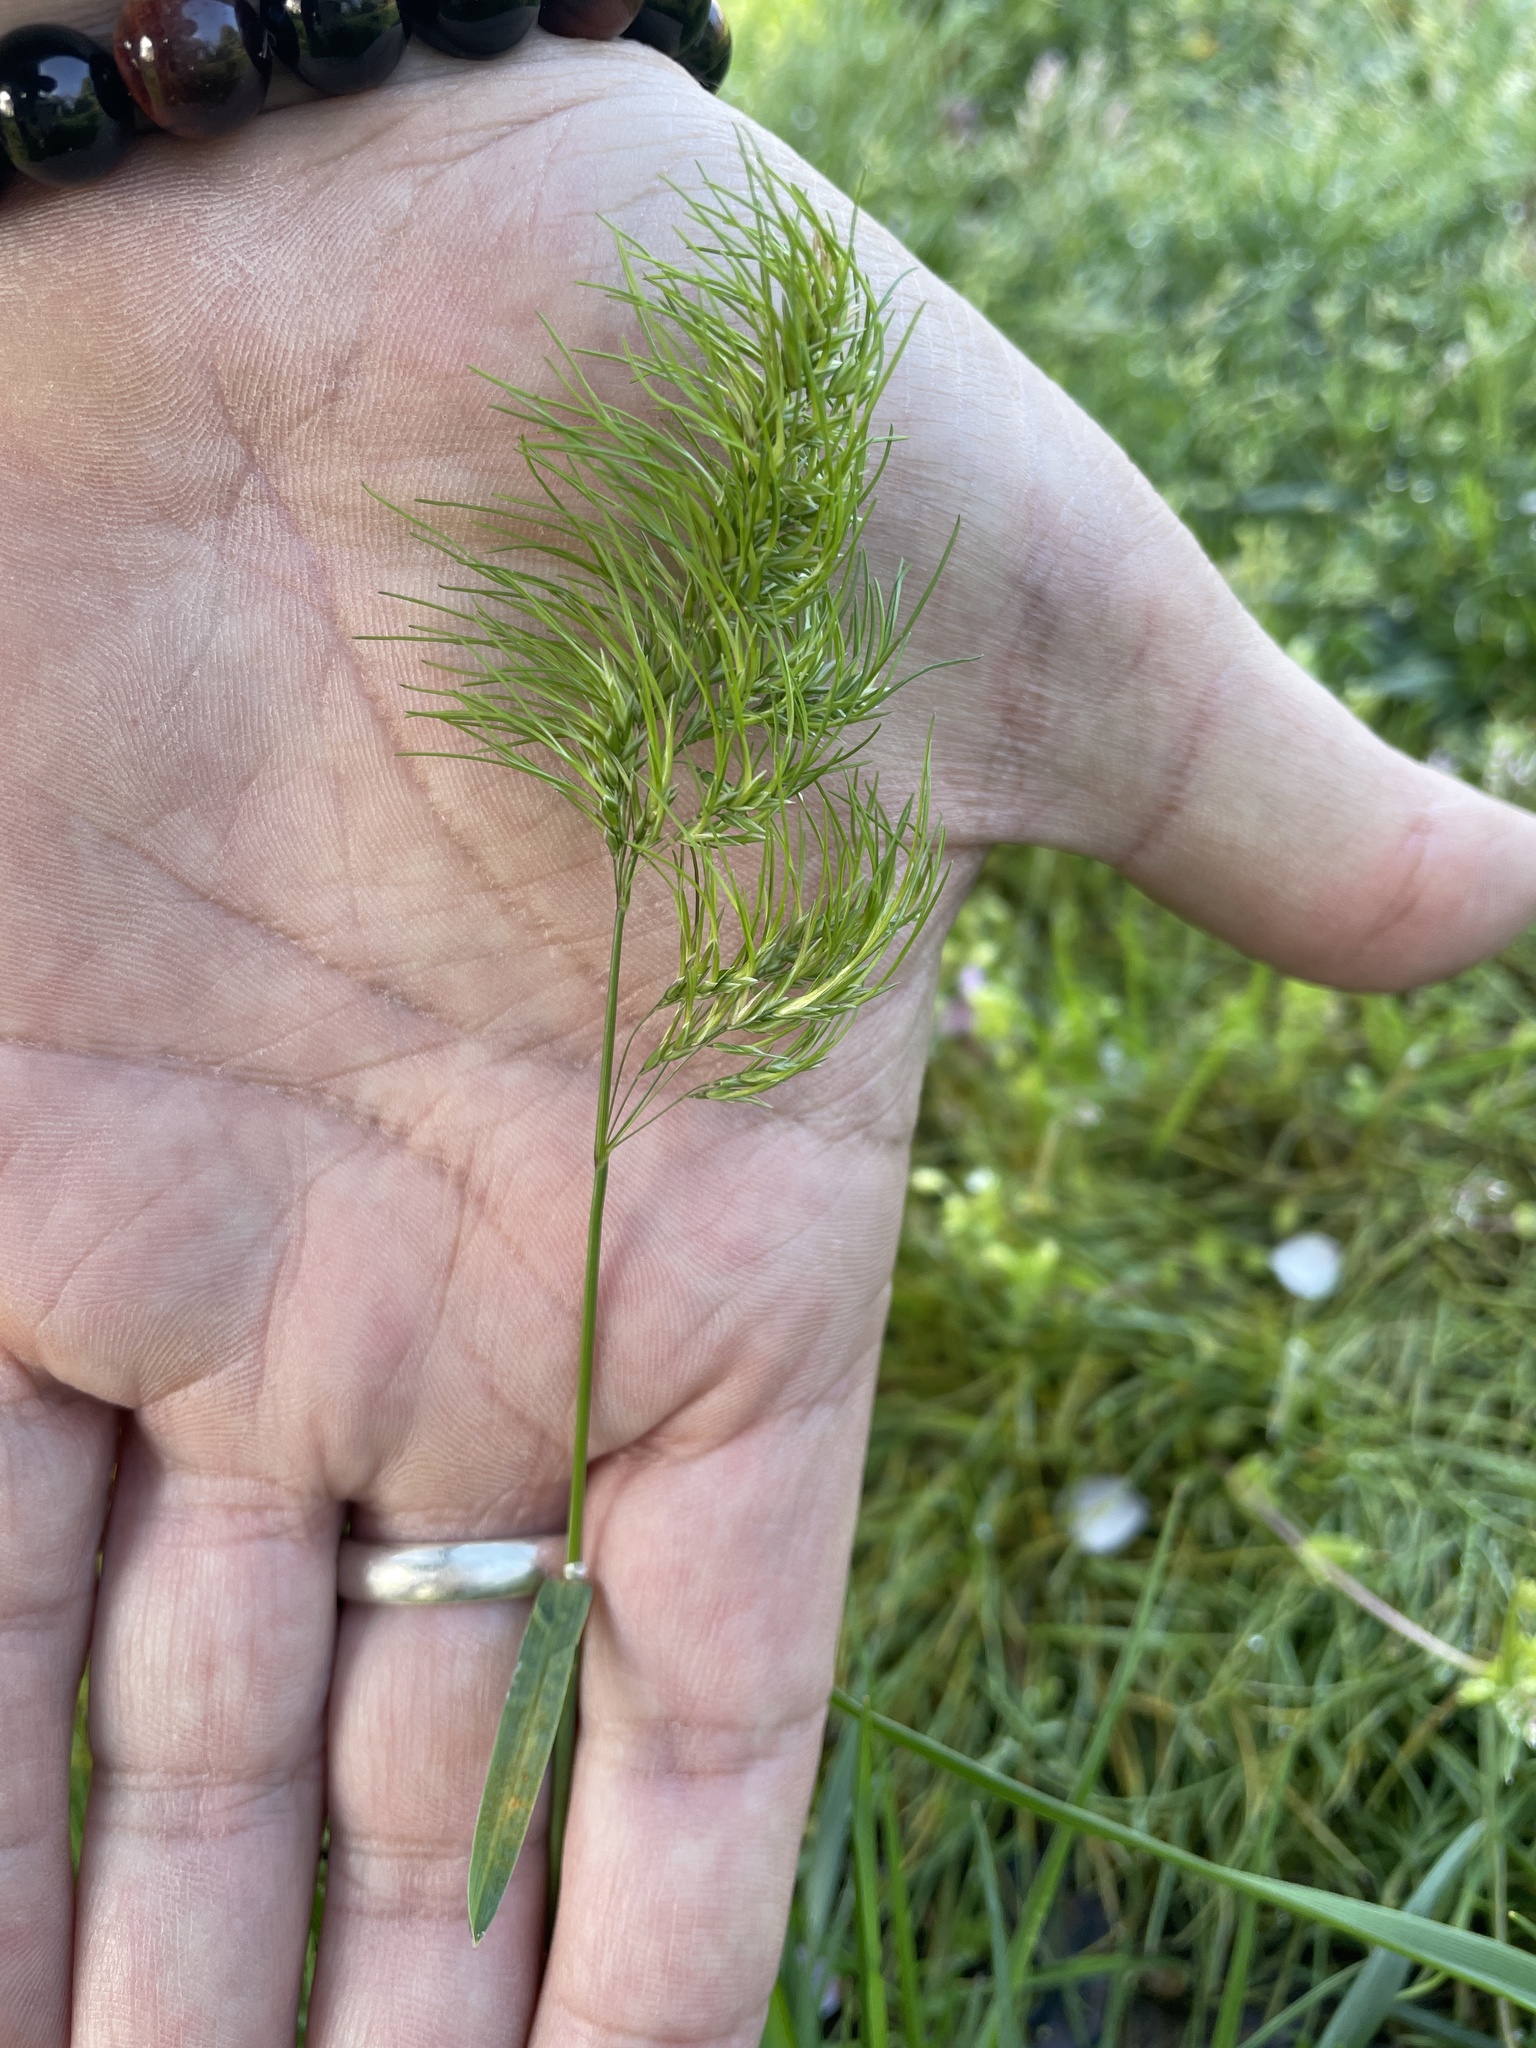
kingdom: Plantae
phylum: Tracheophyta
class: Liliopsida
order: Poales
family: Poaceae
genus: Poa
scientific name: Poa bulbosa
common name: Bulbous bluegrass
